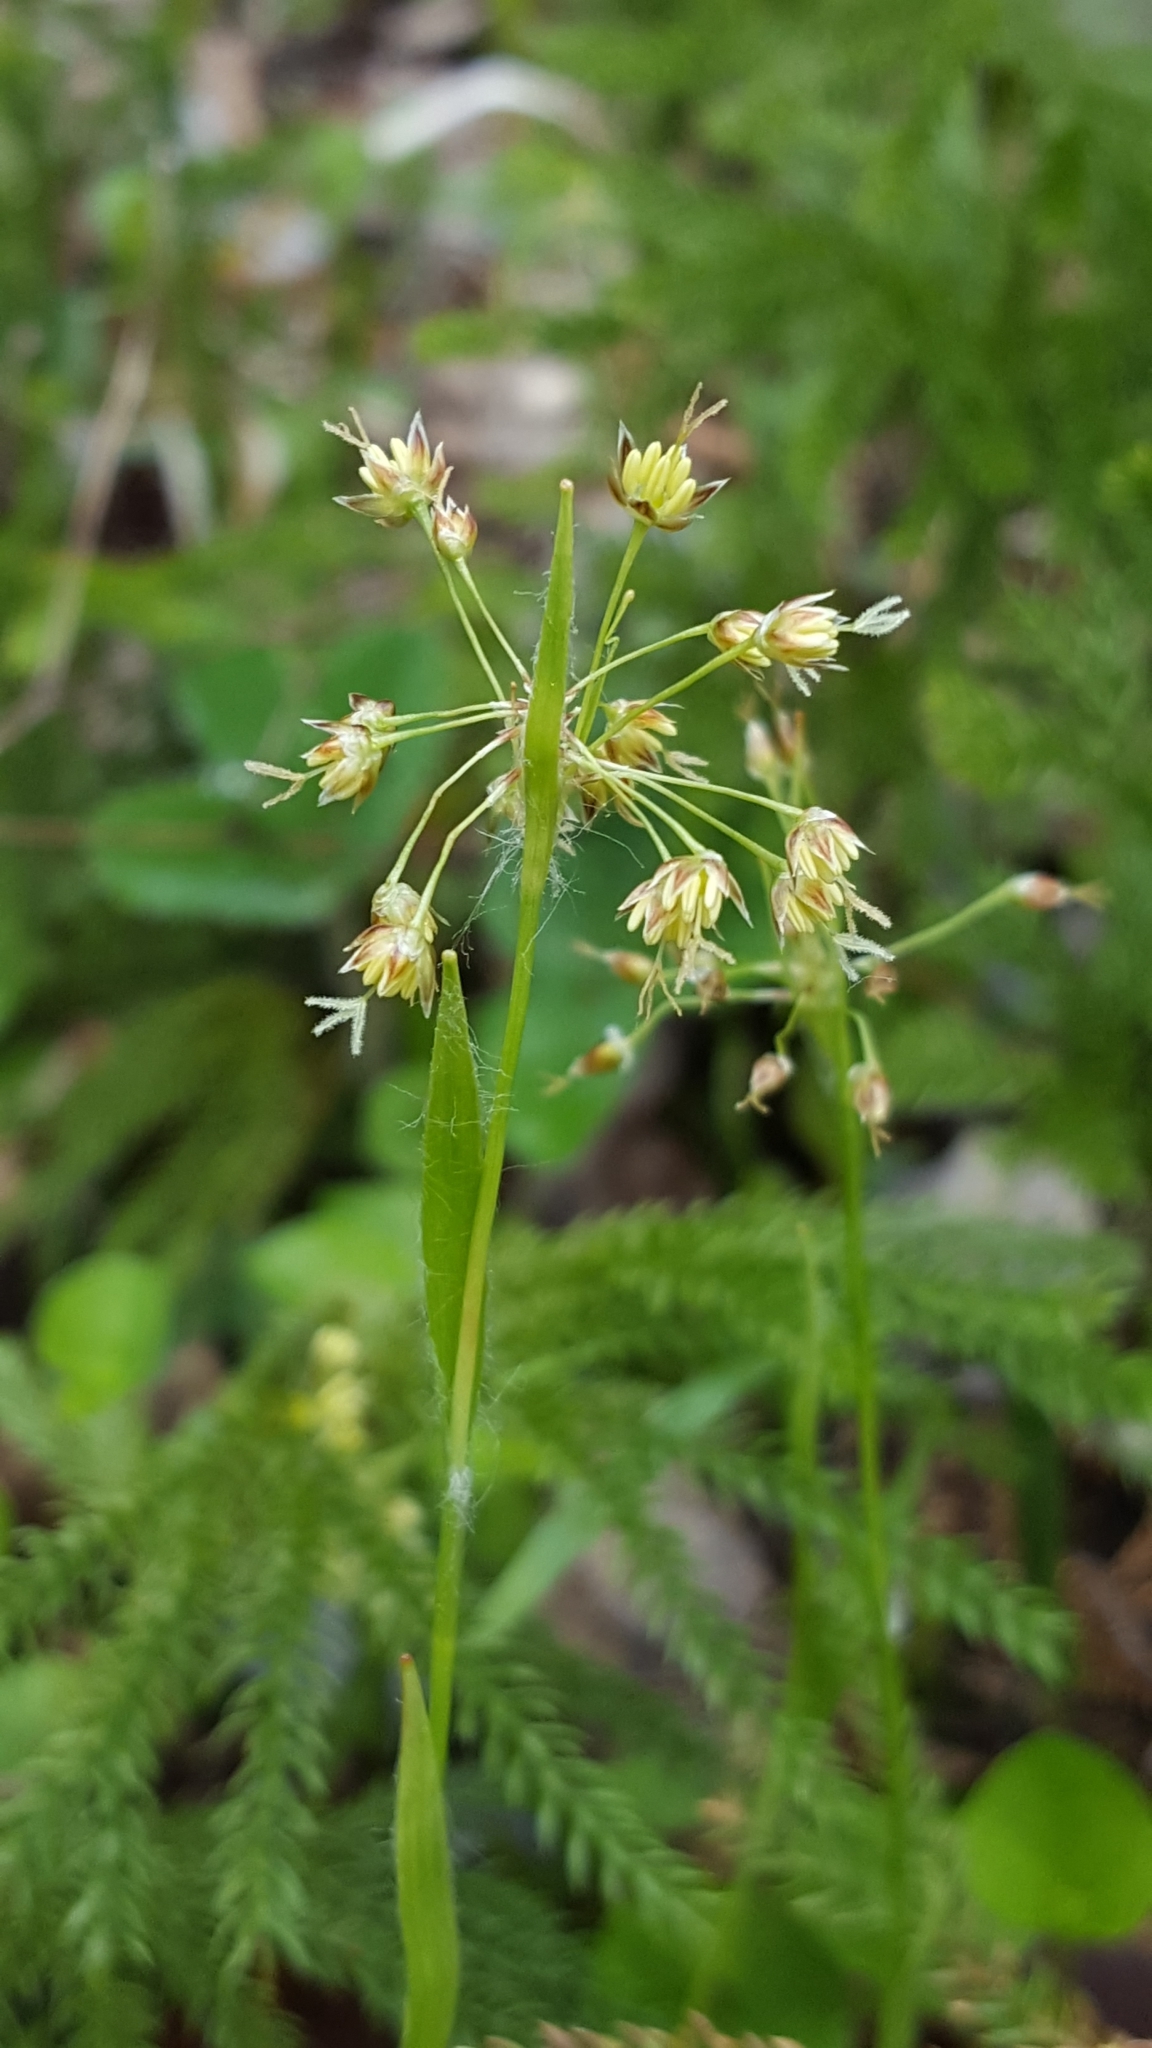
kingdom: Plantae
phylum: Tracheophyta
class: Liliopsida
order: Poales
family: Juncaceae
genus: Luzula
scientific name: Luzula acuminata
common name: Hairy woodrush
